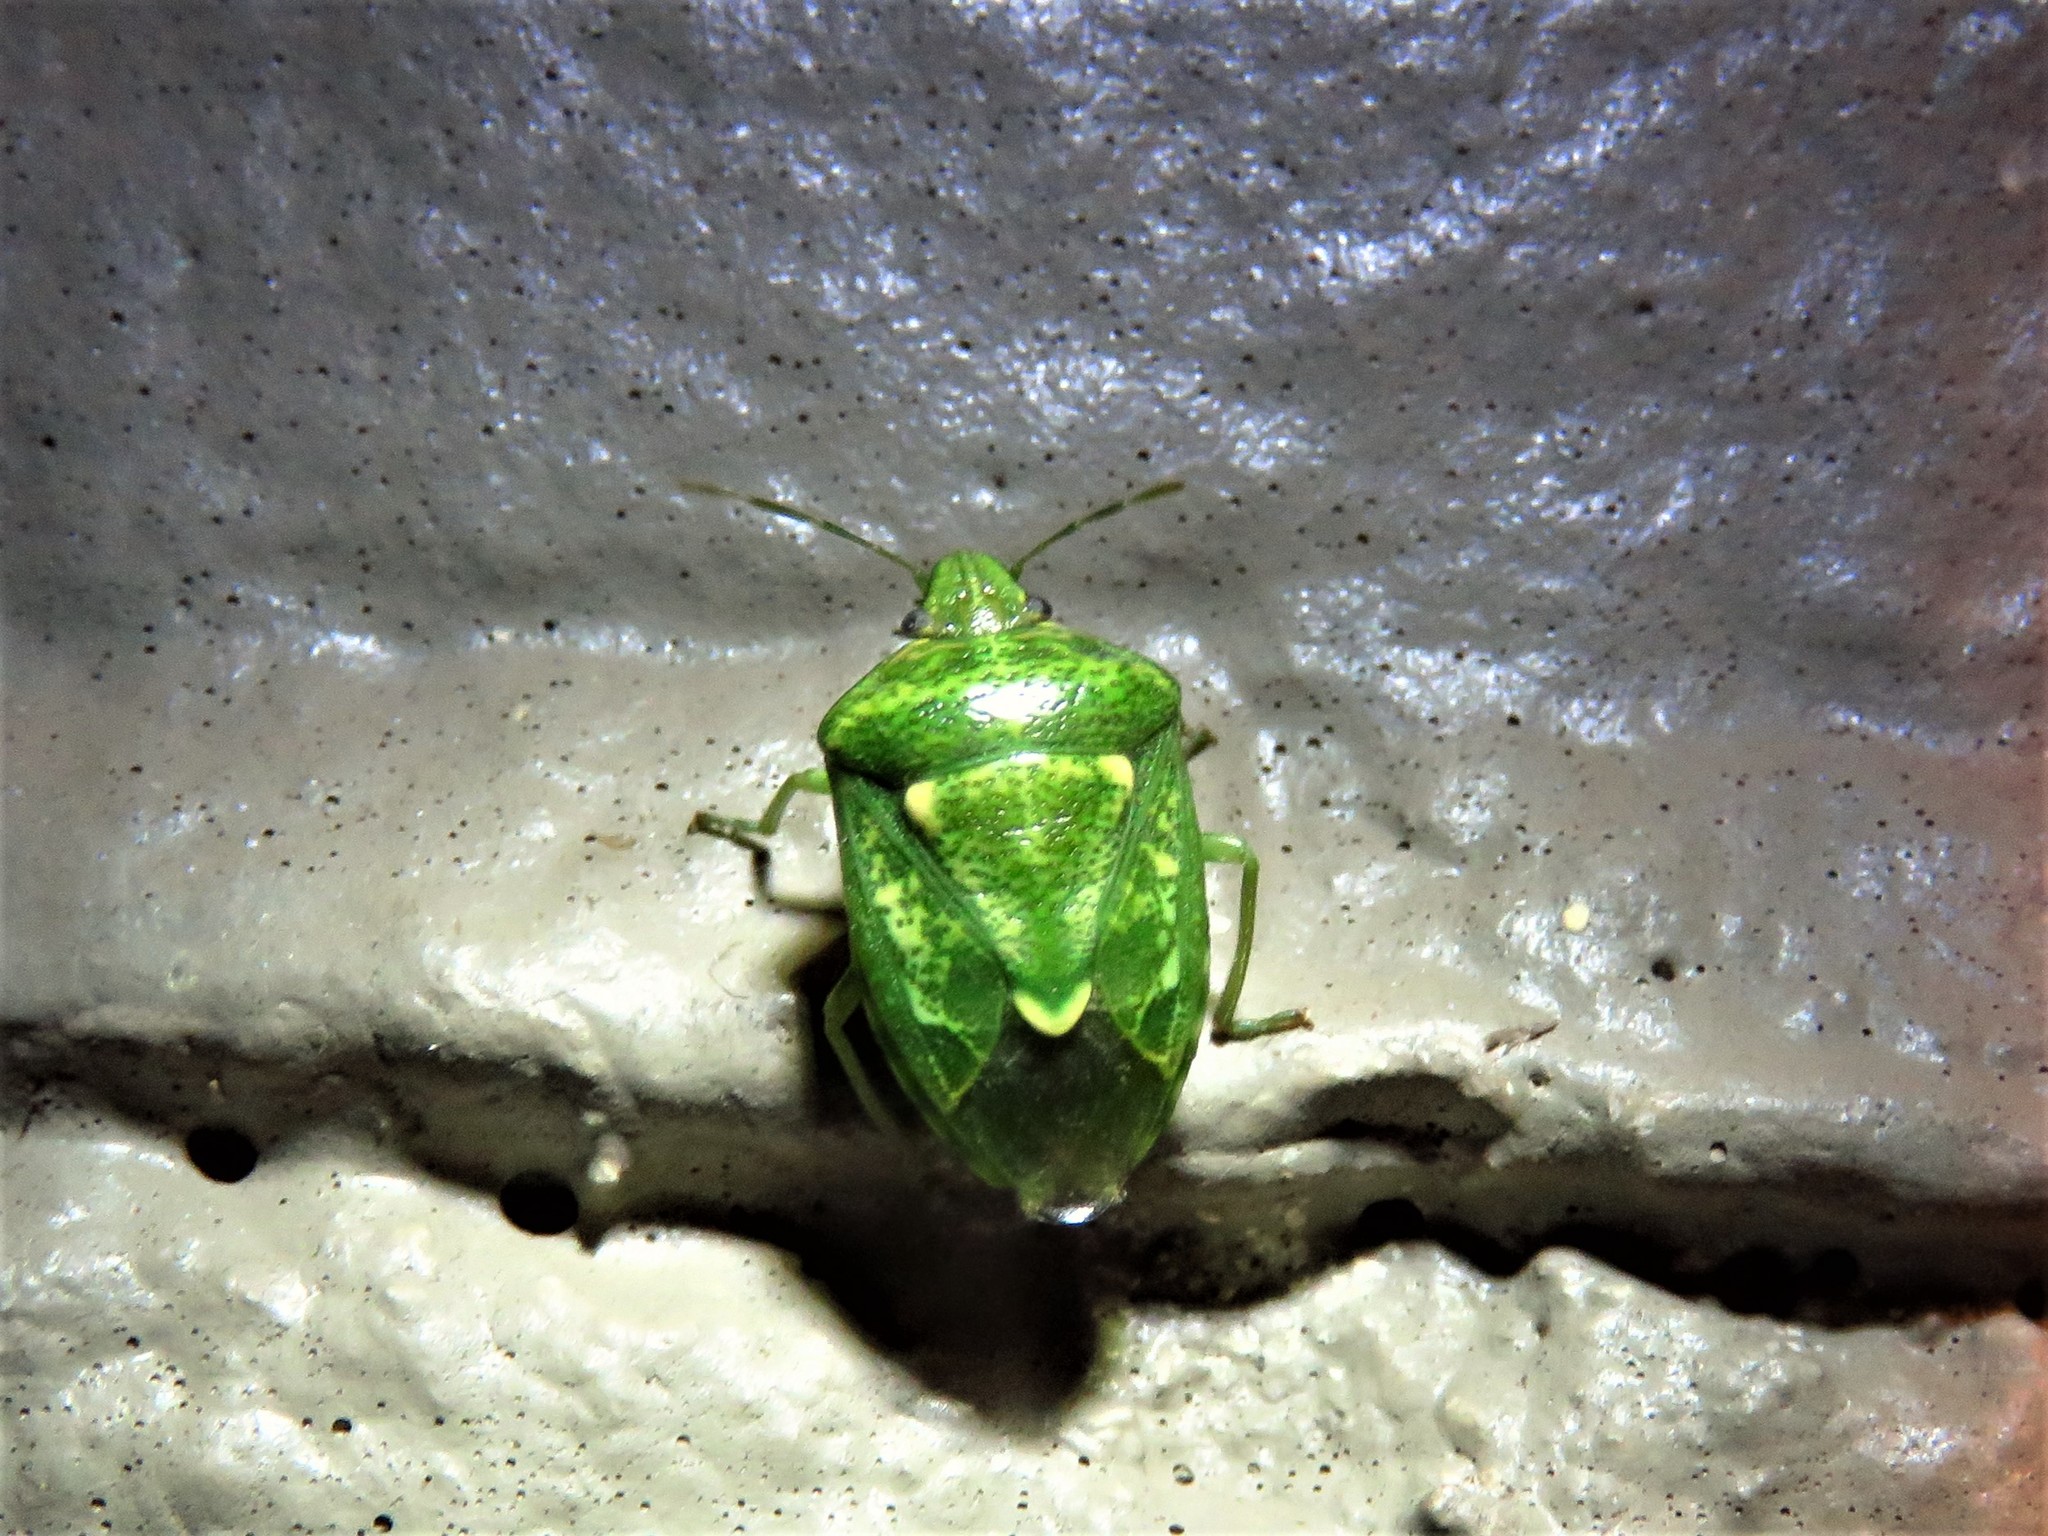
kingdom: Animalia
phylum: Arthropoda
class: Insecta
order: Hemiptera
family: Pentatomidae
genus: Banasa
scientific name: Banasa euchlora
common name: Cedar berry bug
